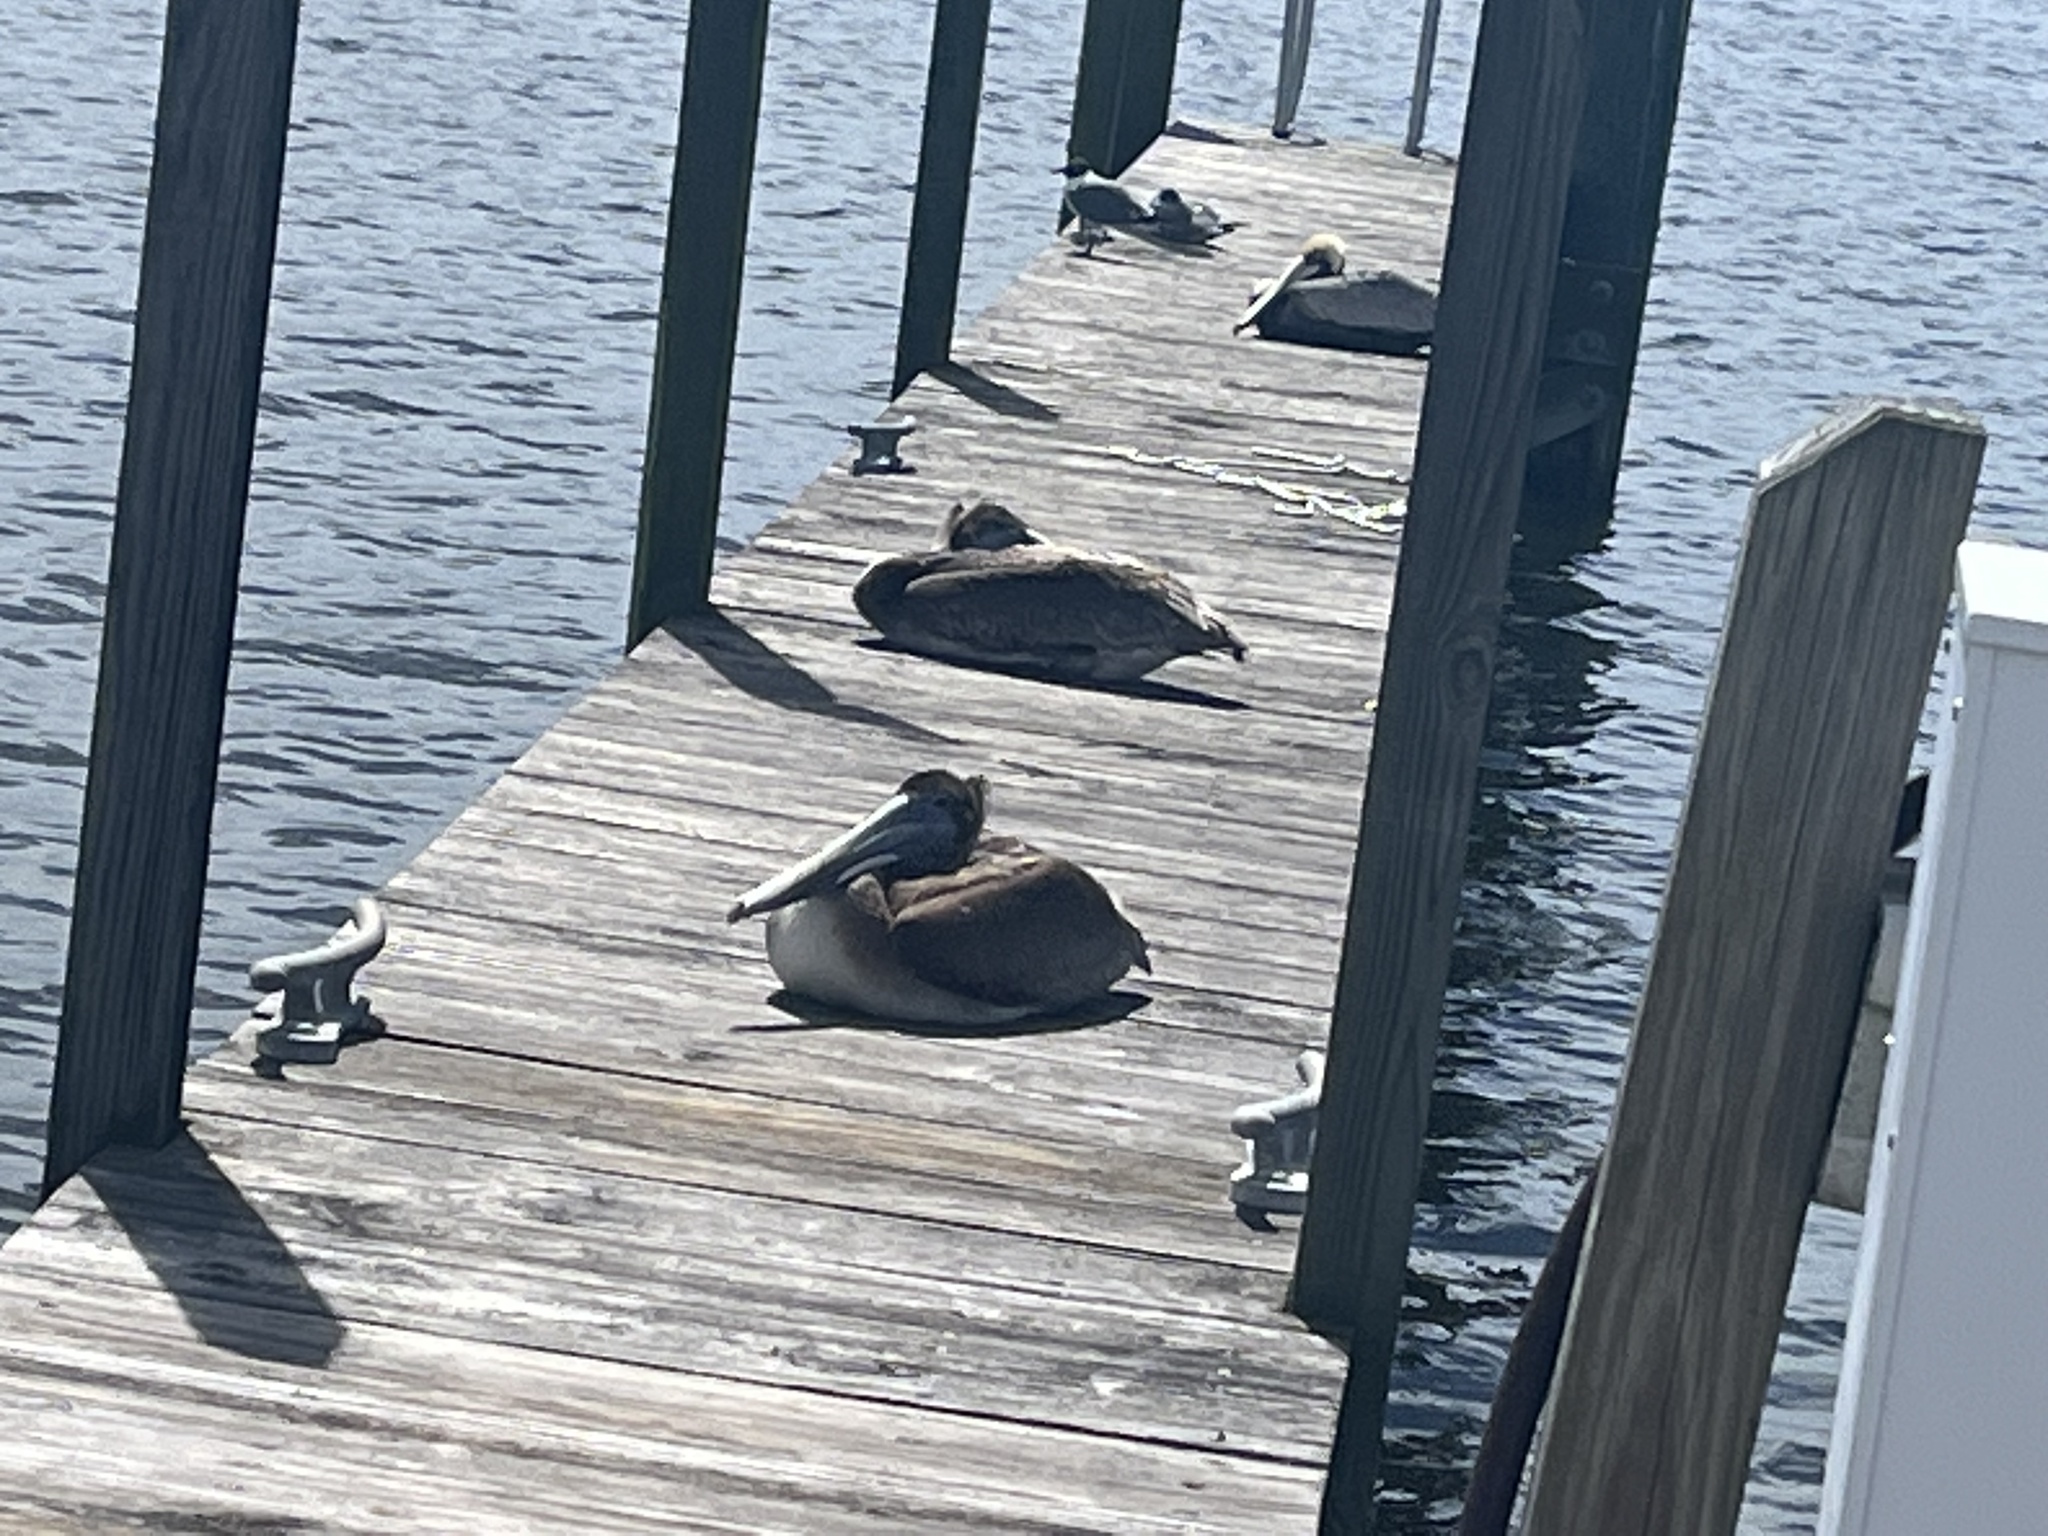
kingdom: Animalia
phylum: Chordata
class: Aves
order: Pelecaniformes
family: Pelecanidae
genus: Pelecanus
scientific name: Pelecanus occidentalis
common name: Brown pelican
